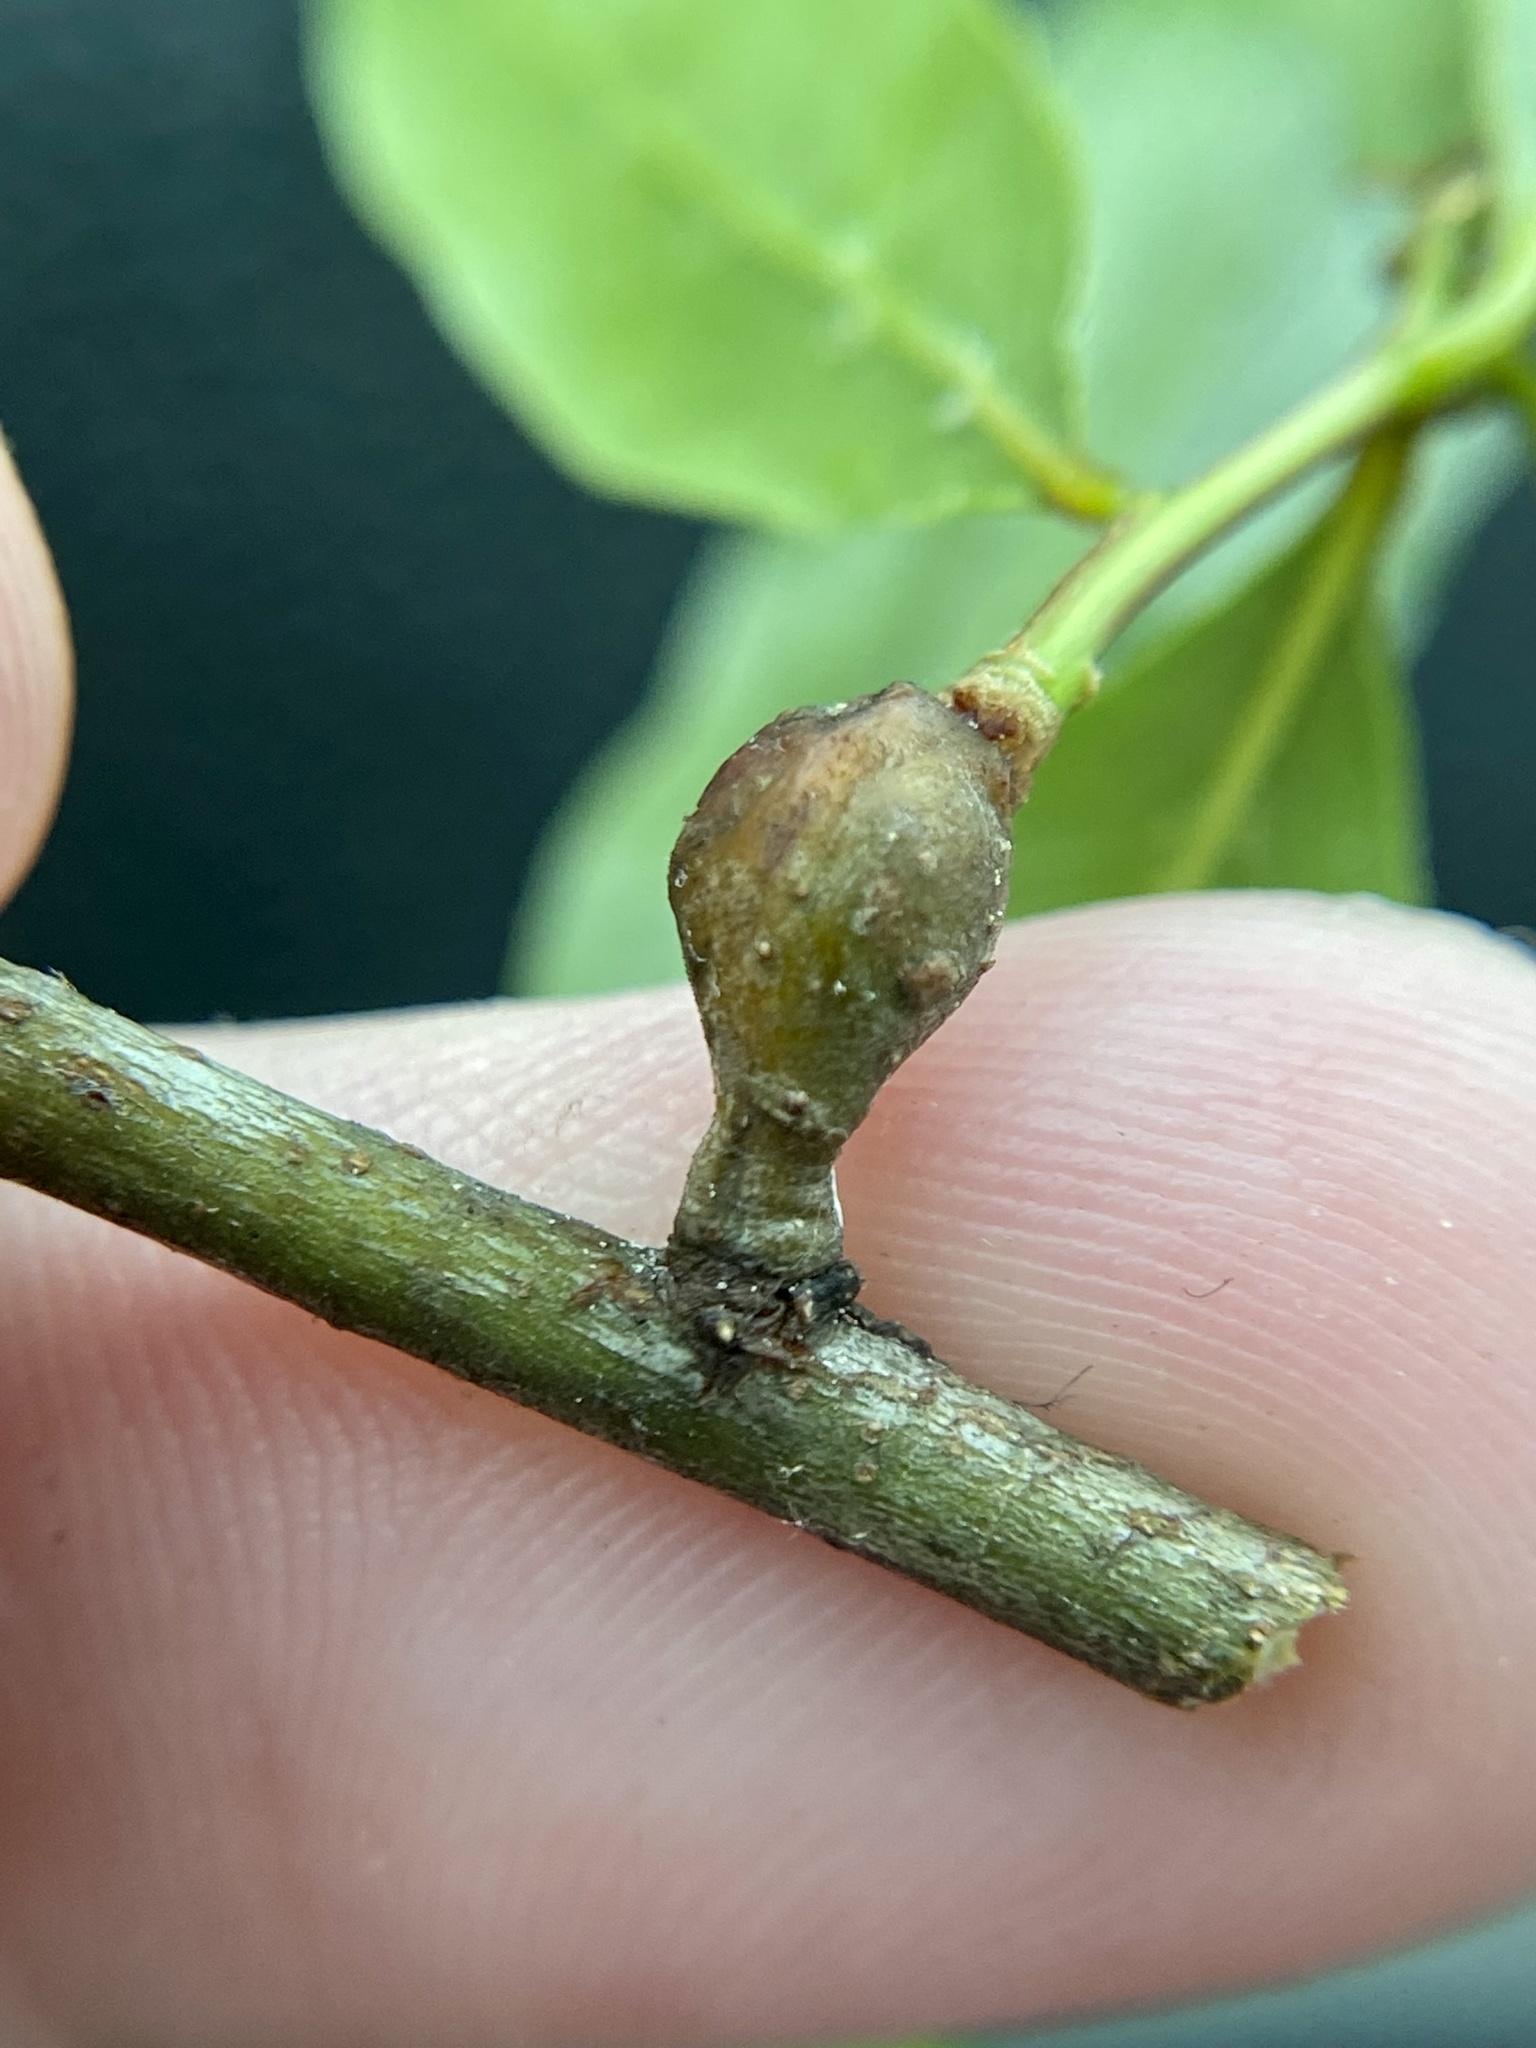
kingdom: Animalia
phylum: Arthropoda
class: Insecta
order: Hymenoptera
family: Cynipidae
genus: Zapatella
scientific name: Zapatella quercusphellos
